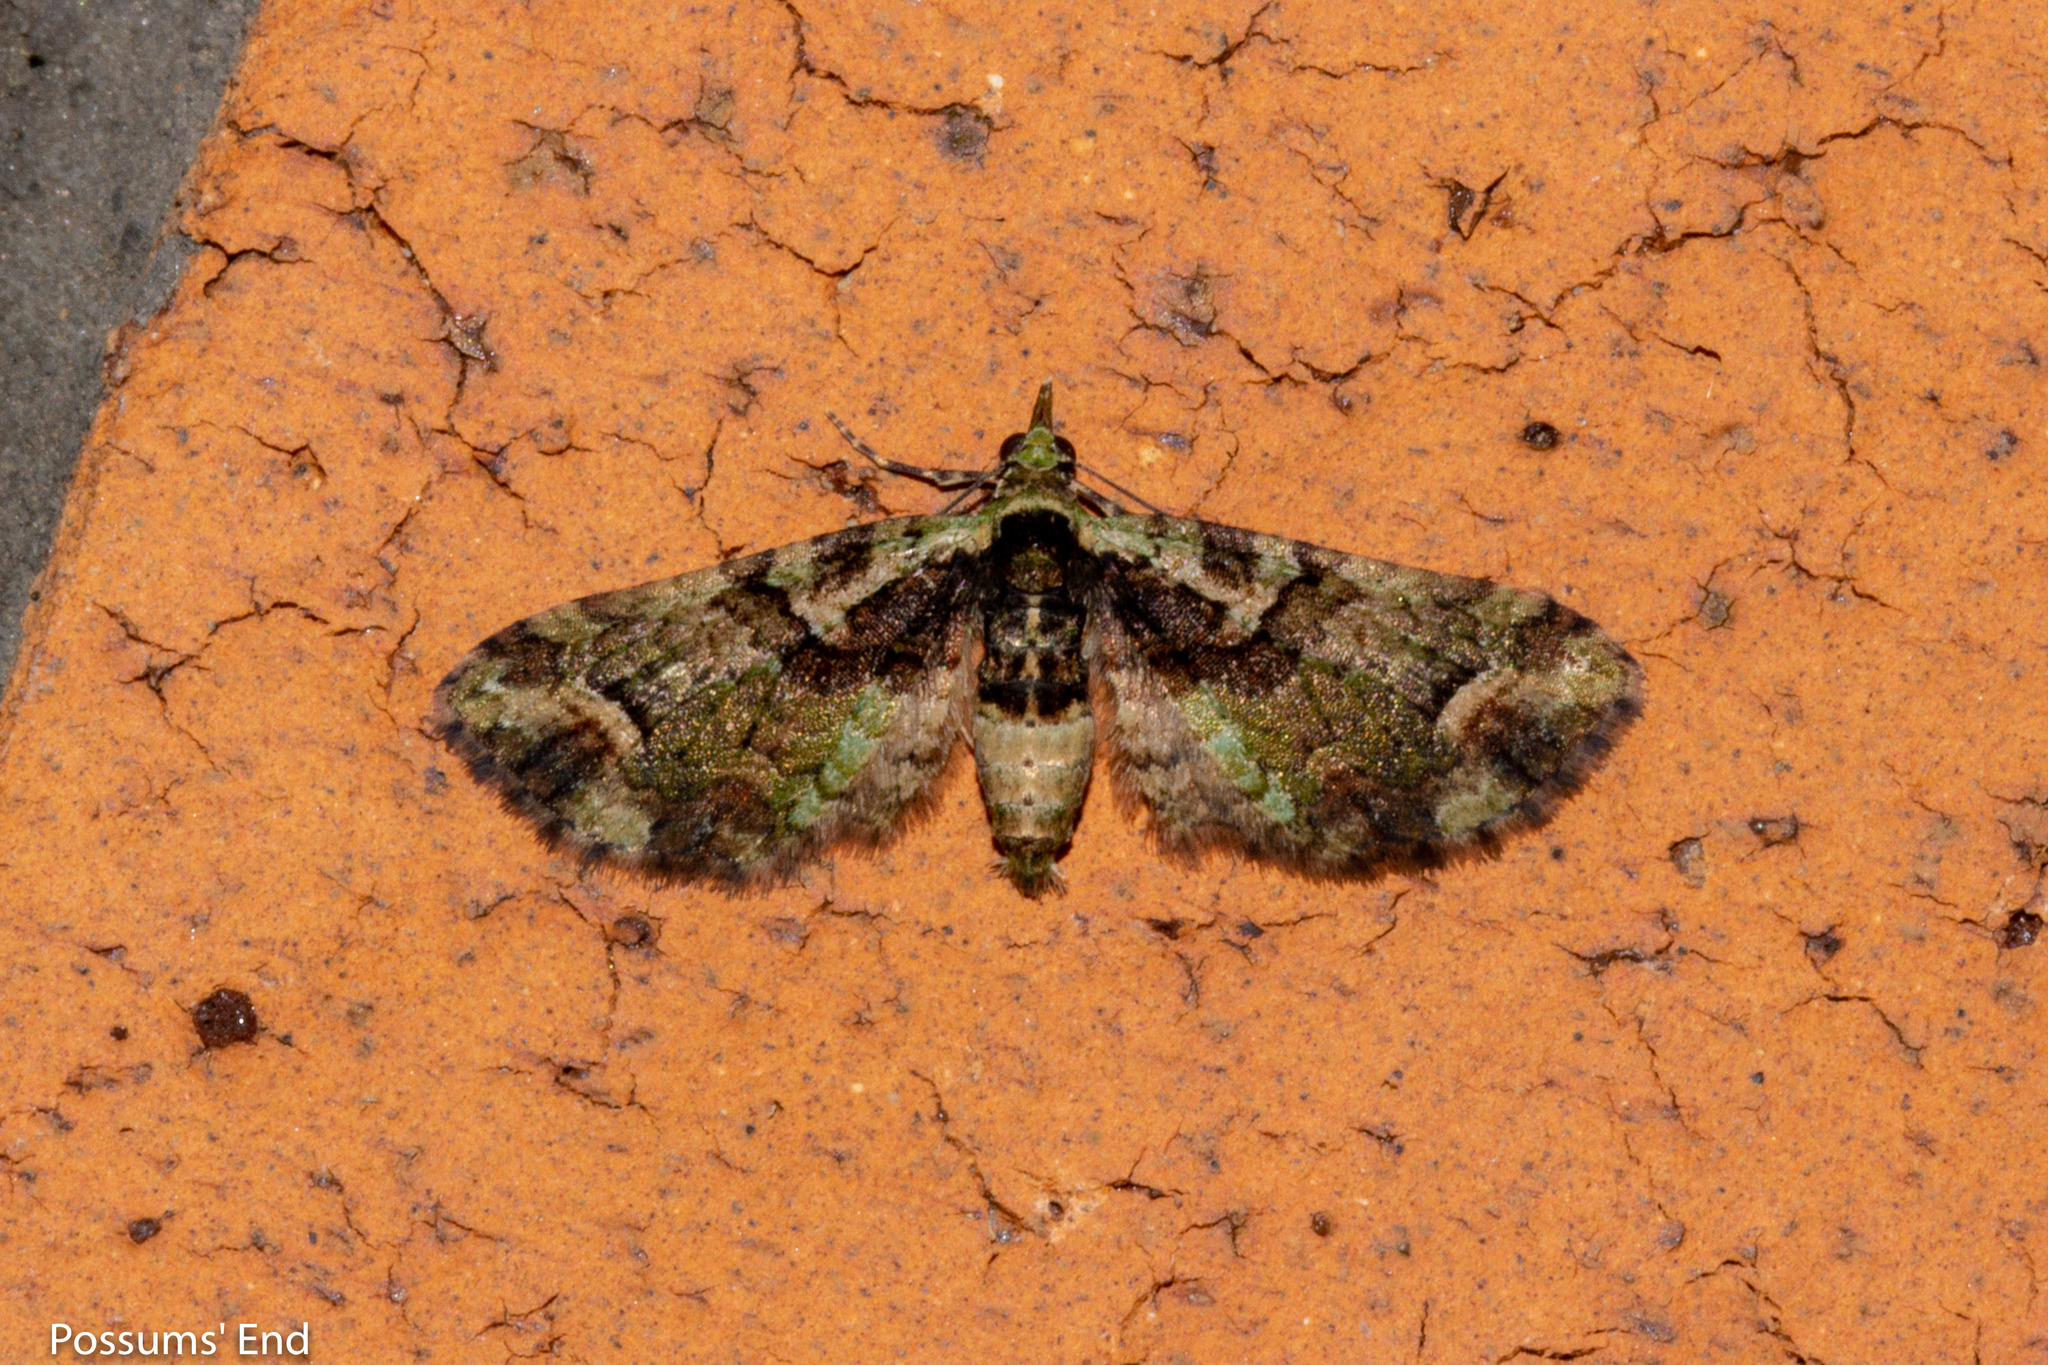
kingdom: Animalia
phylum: Arthropoda
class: Insecta
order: Lepidoptera
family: Geometridae
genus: Idaea
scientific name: Idaea mutanda
